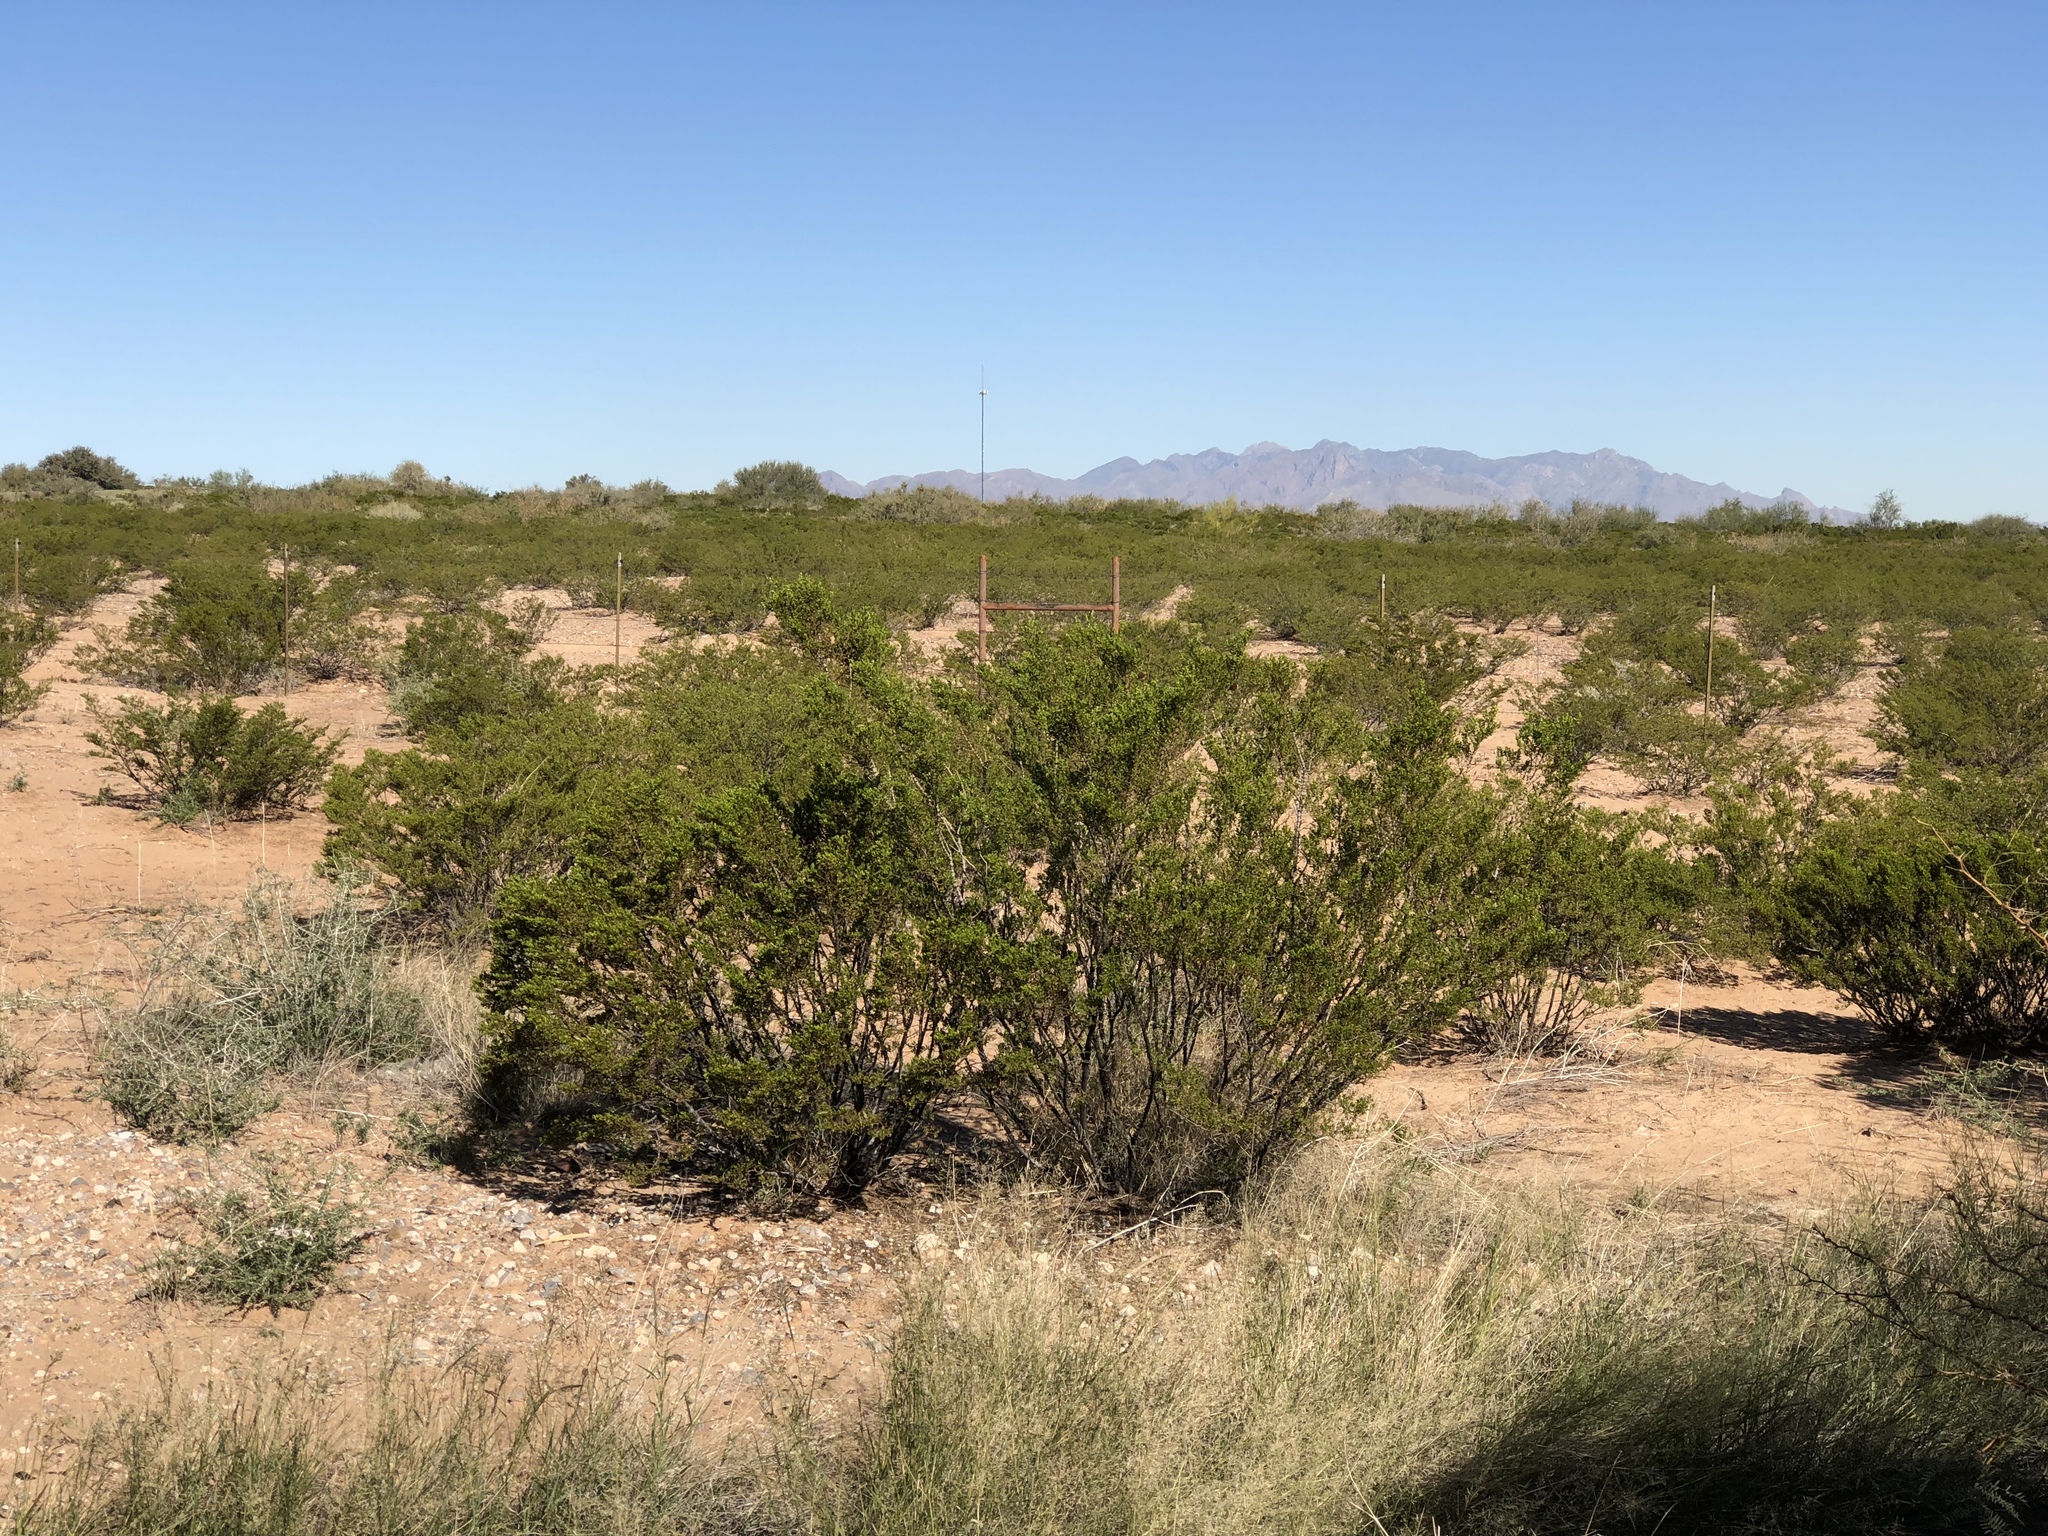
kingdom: Plantae
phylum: Tracheophyta
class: Magnoliopsida
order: Zygophyllales
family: Zygophyllaceae
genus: Larrea
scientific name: Larrea tridentata
